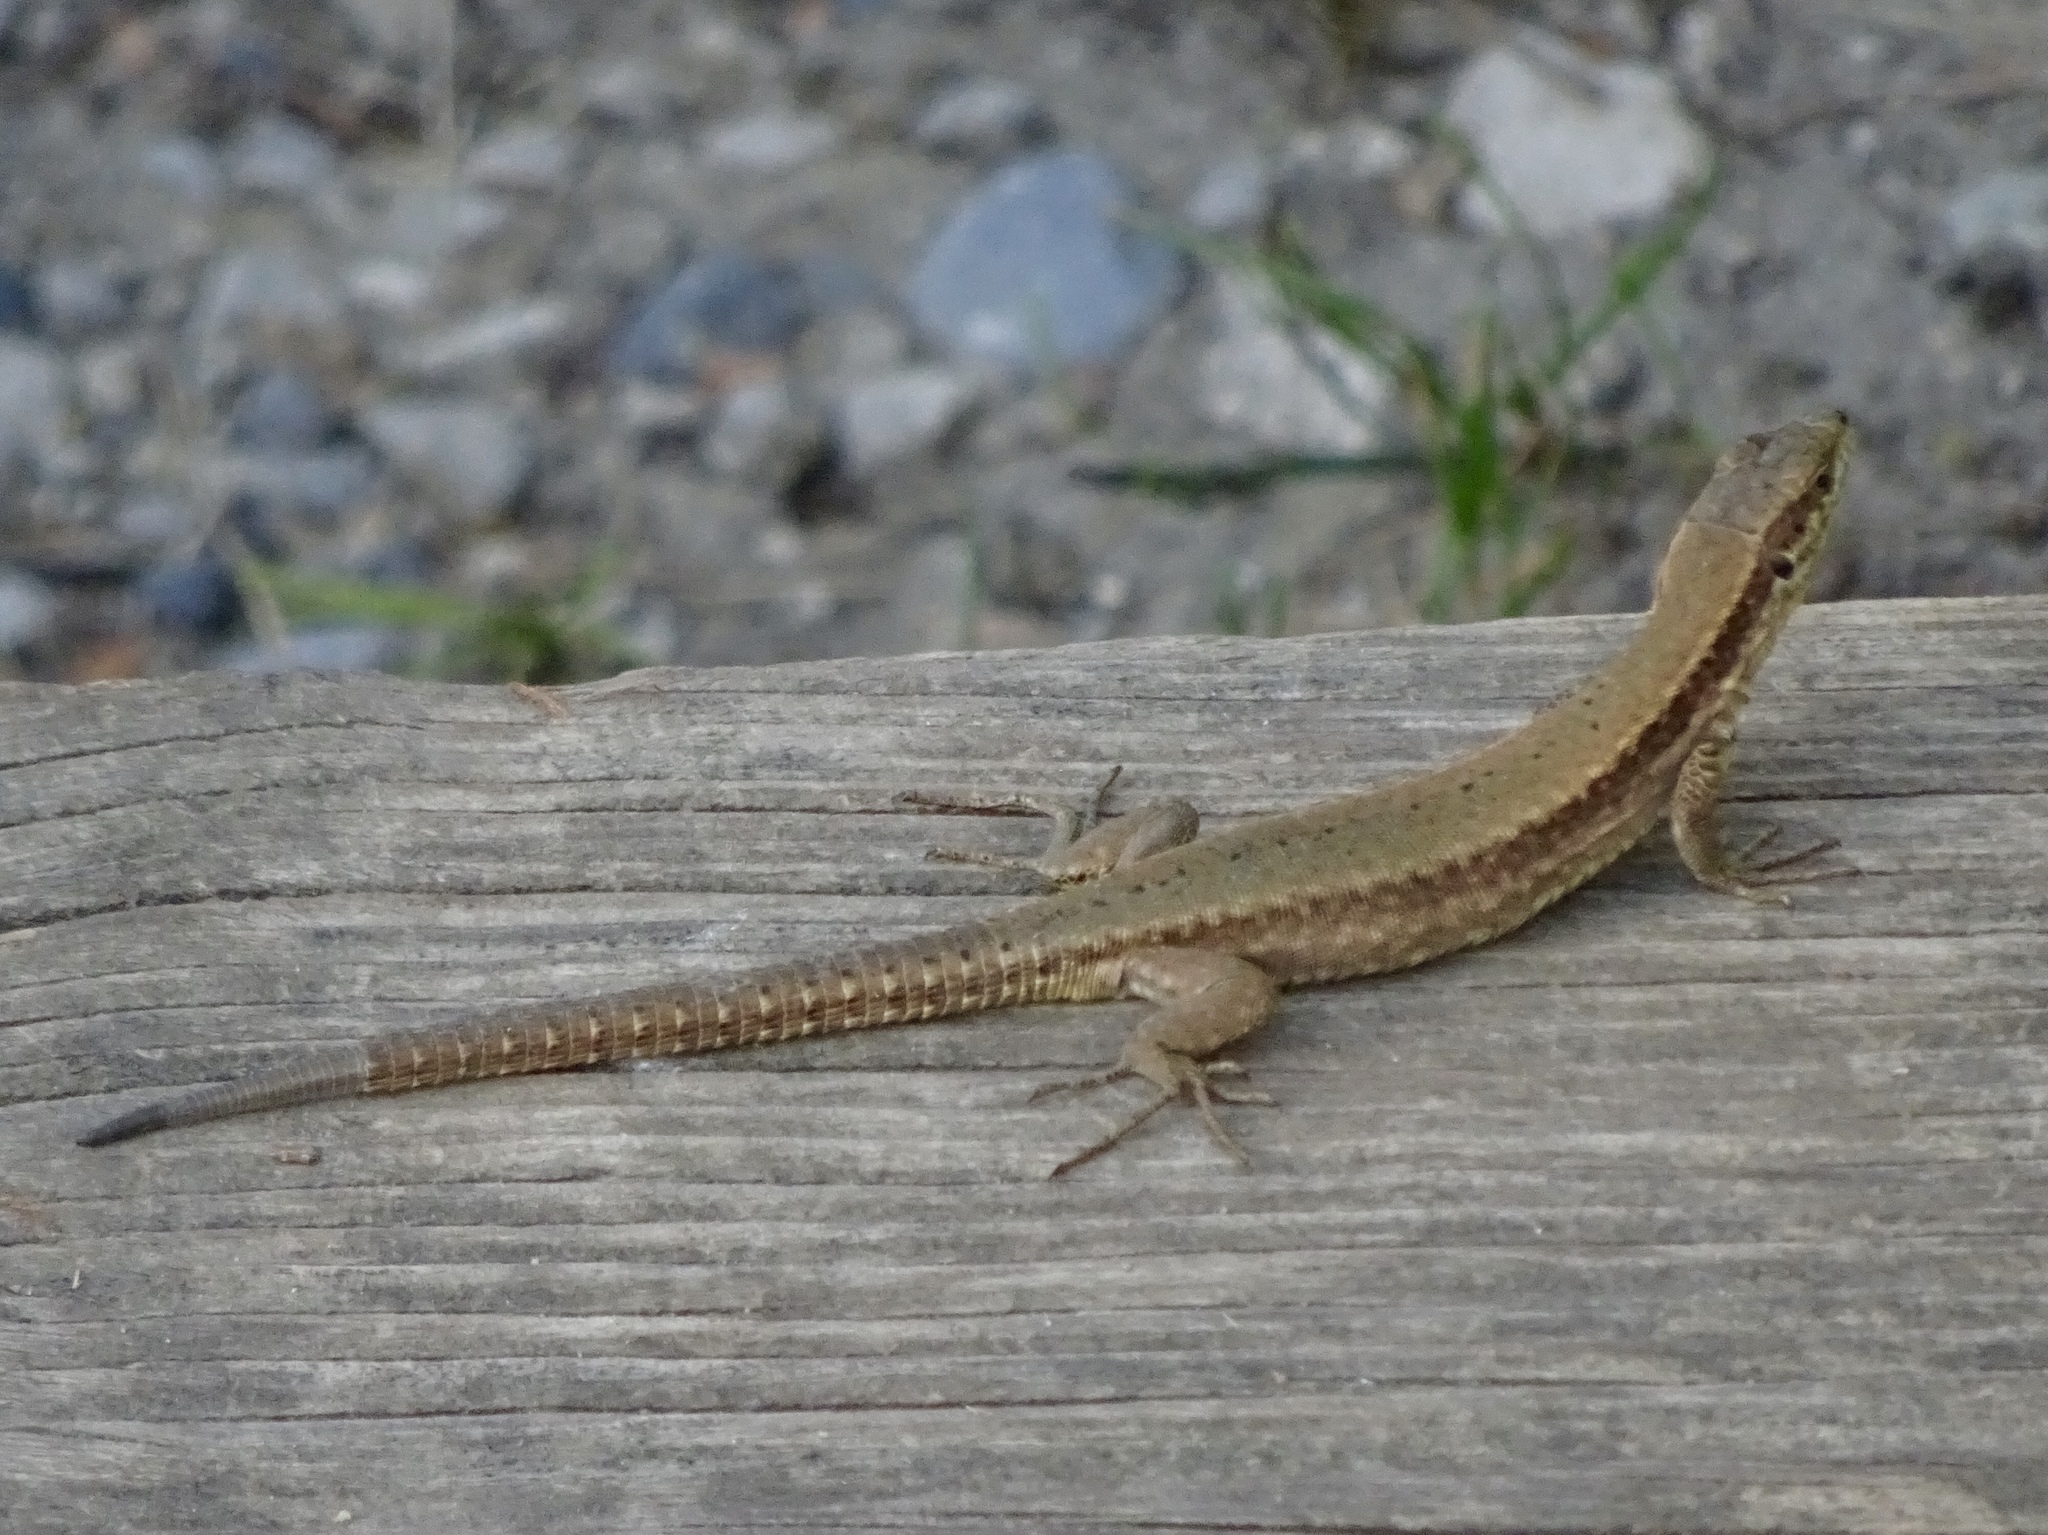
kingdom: Animalia
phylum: Chordata
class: Squamata
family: Lacertidae
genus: Podarcis
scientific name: Podarcis muralis
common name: Common wall lizard
